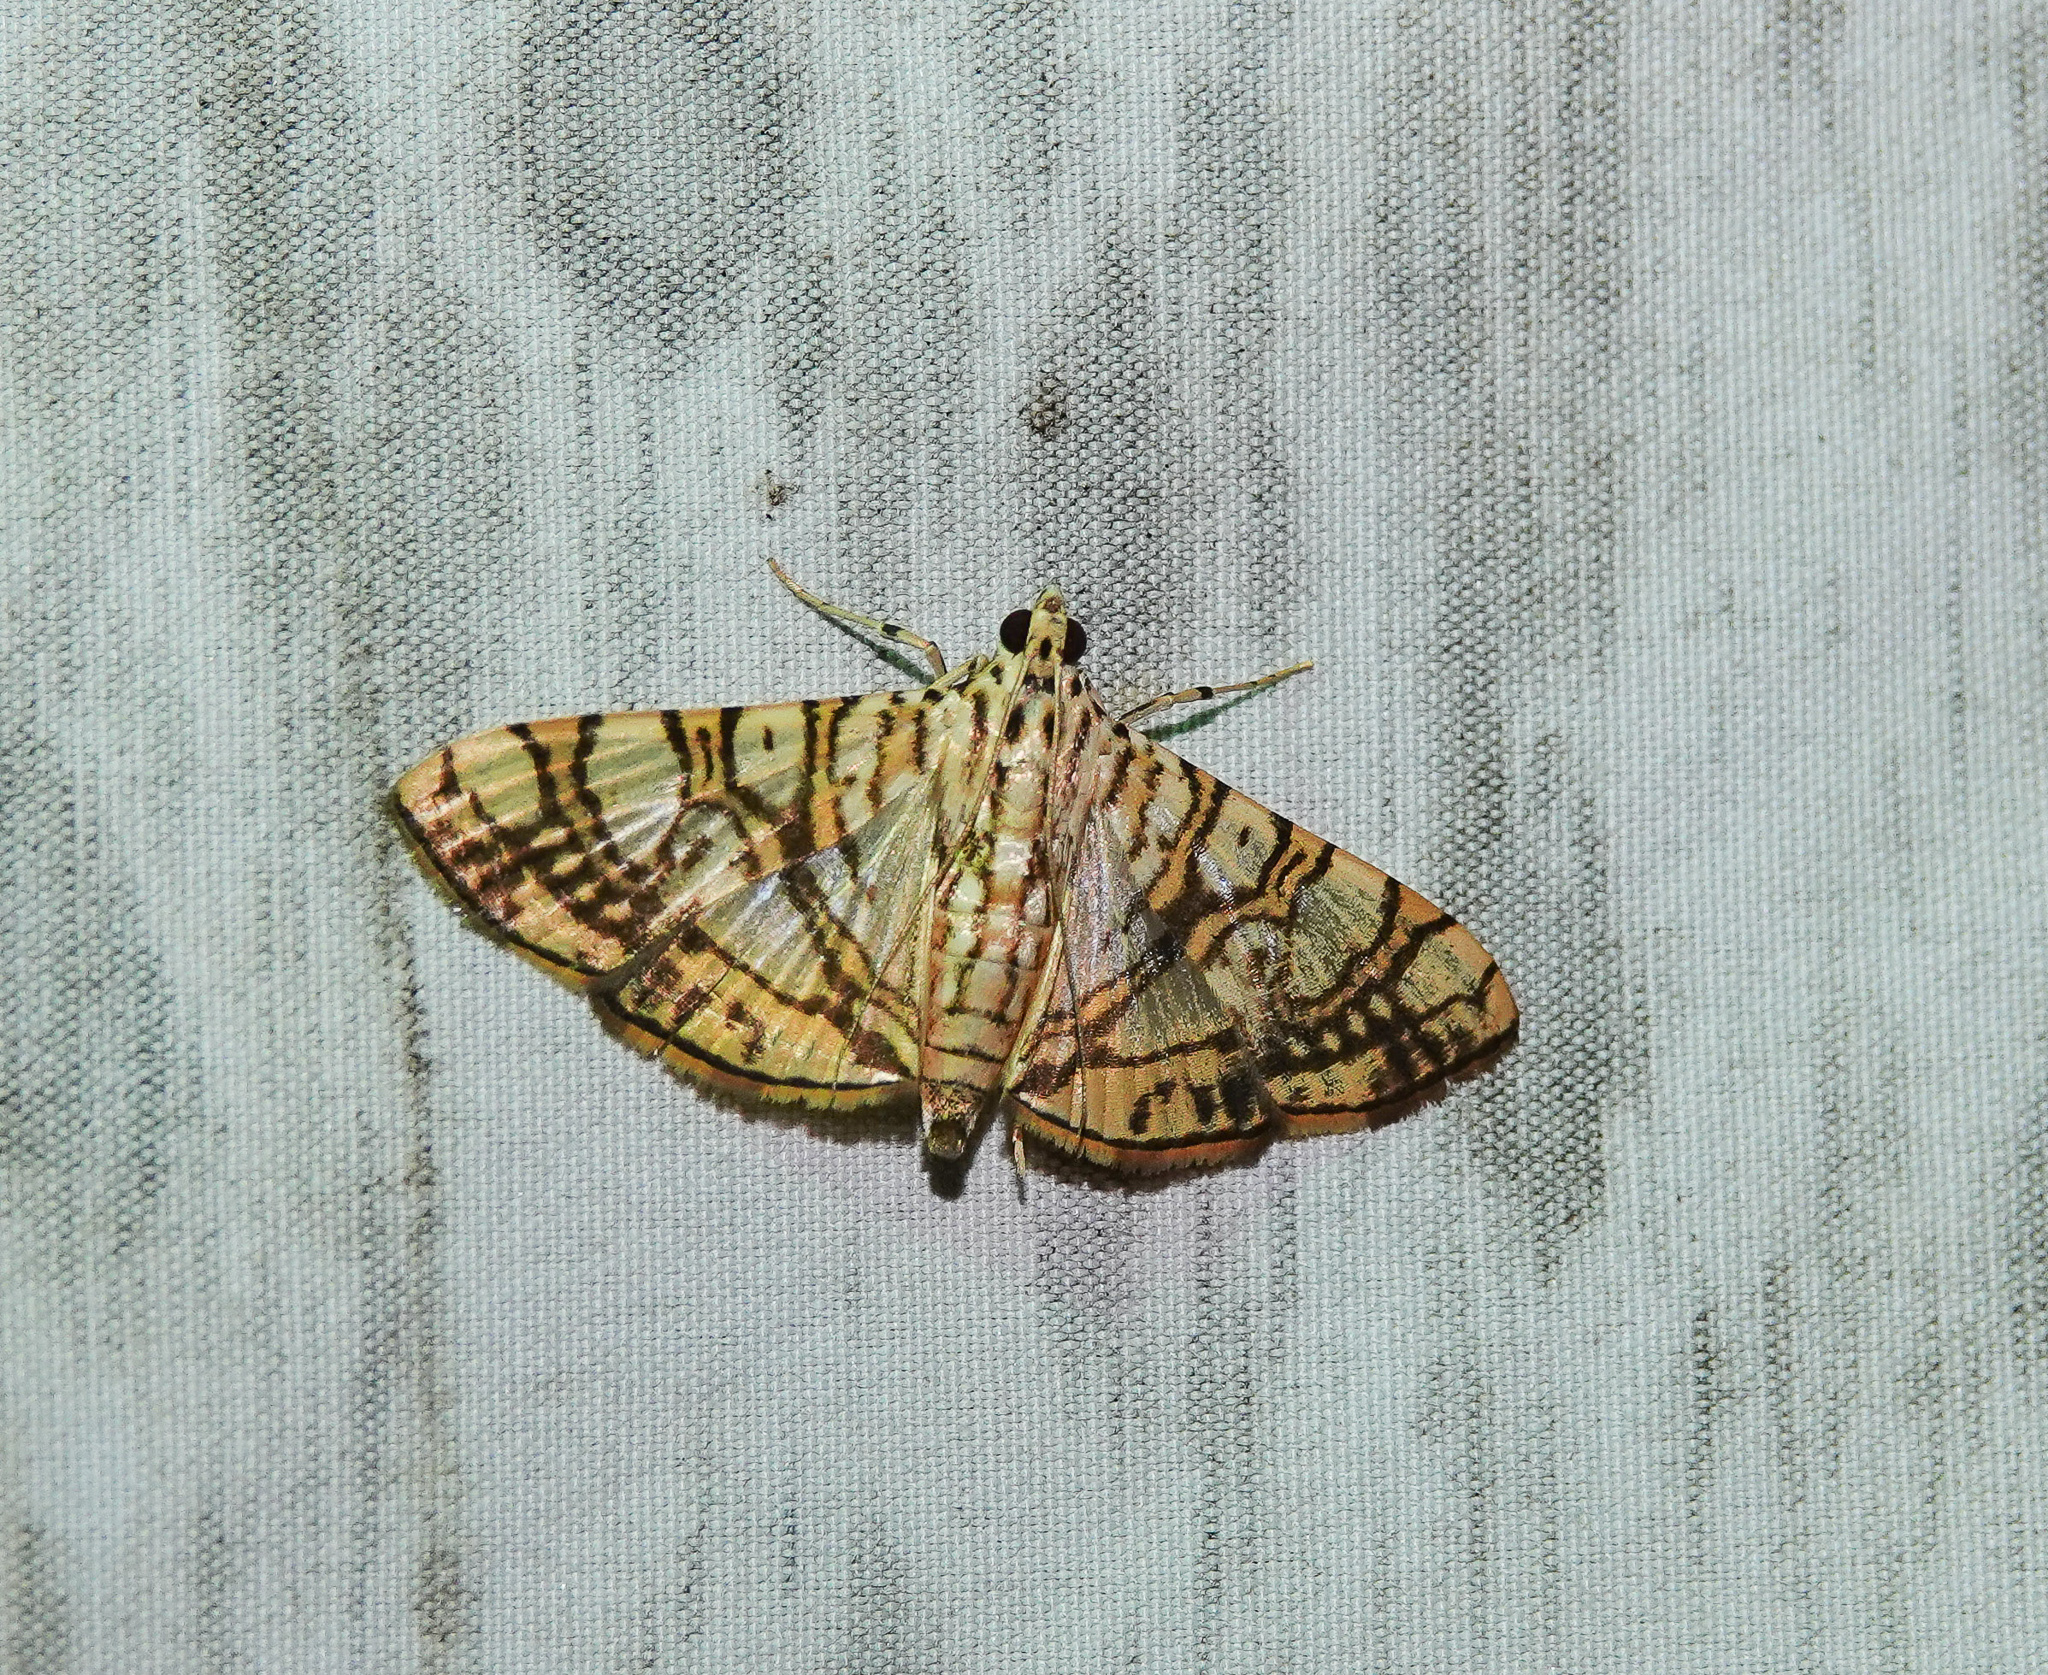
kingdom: Animalia
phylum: Arthropoda
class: Insecta
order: Lepidoptera
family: Crambidae
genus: Glyphodes
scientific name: Glyphodes caesalis
